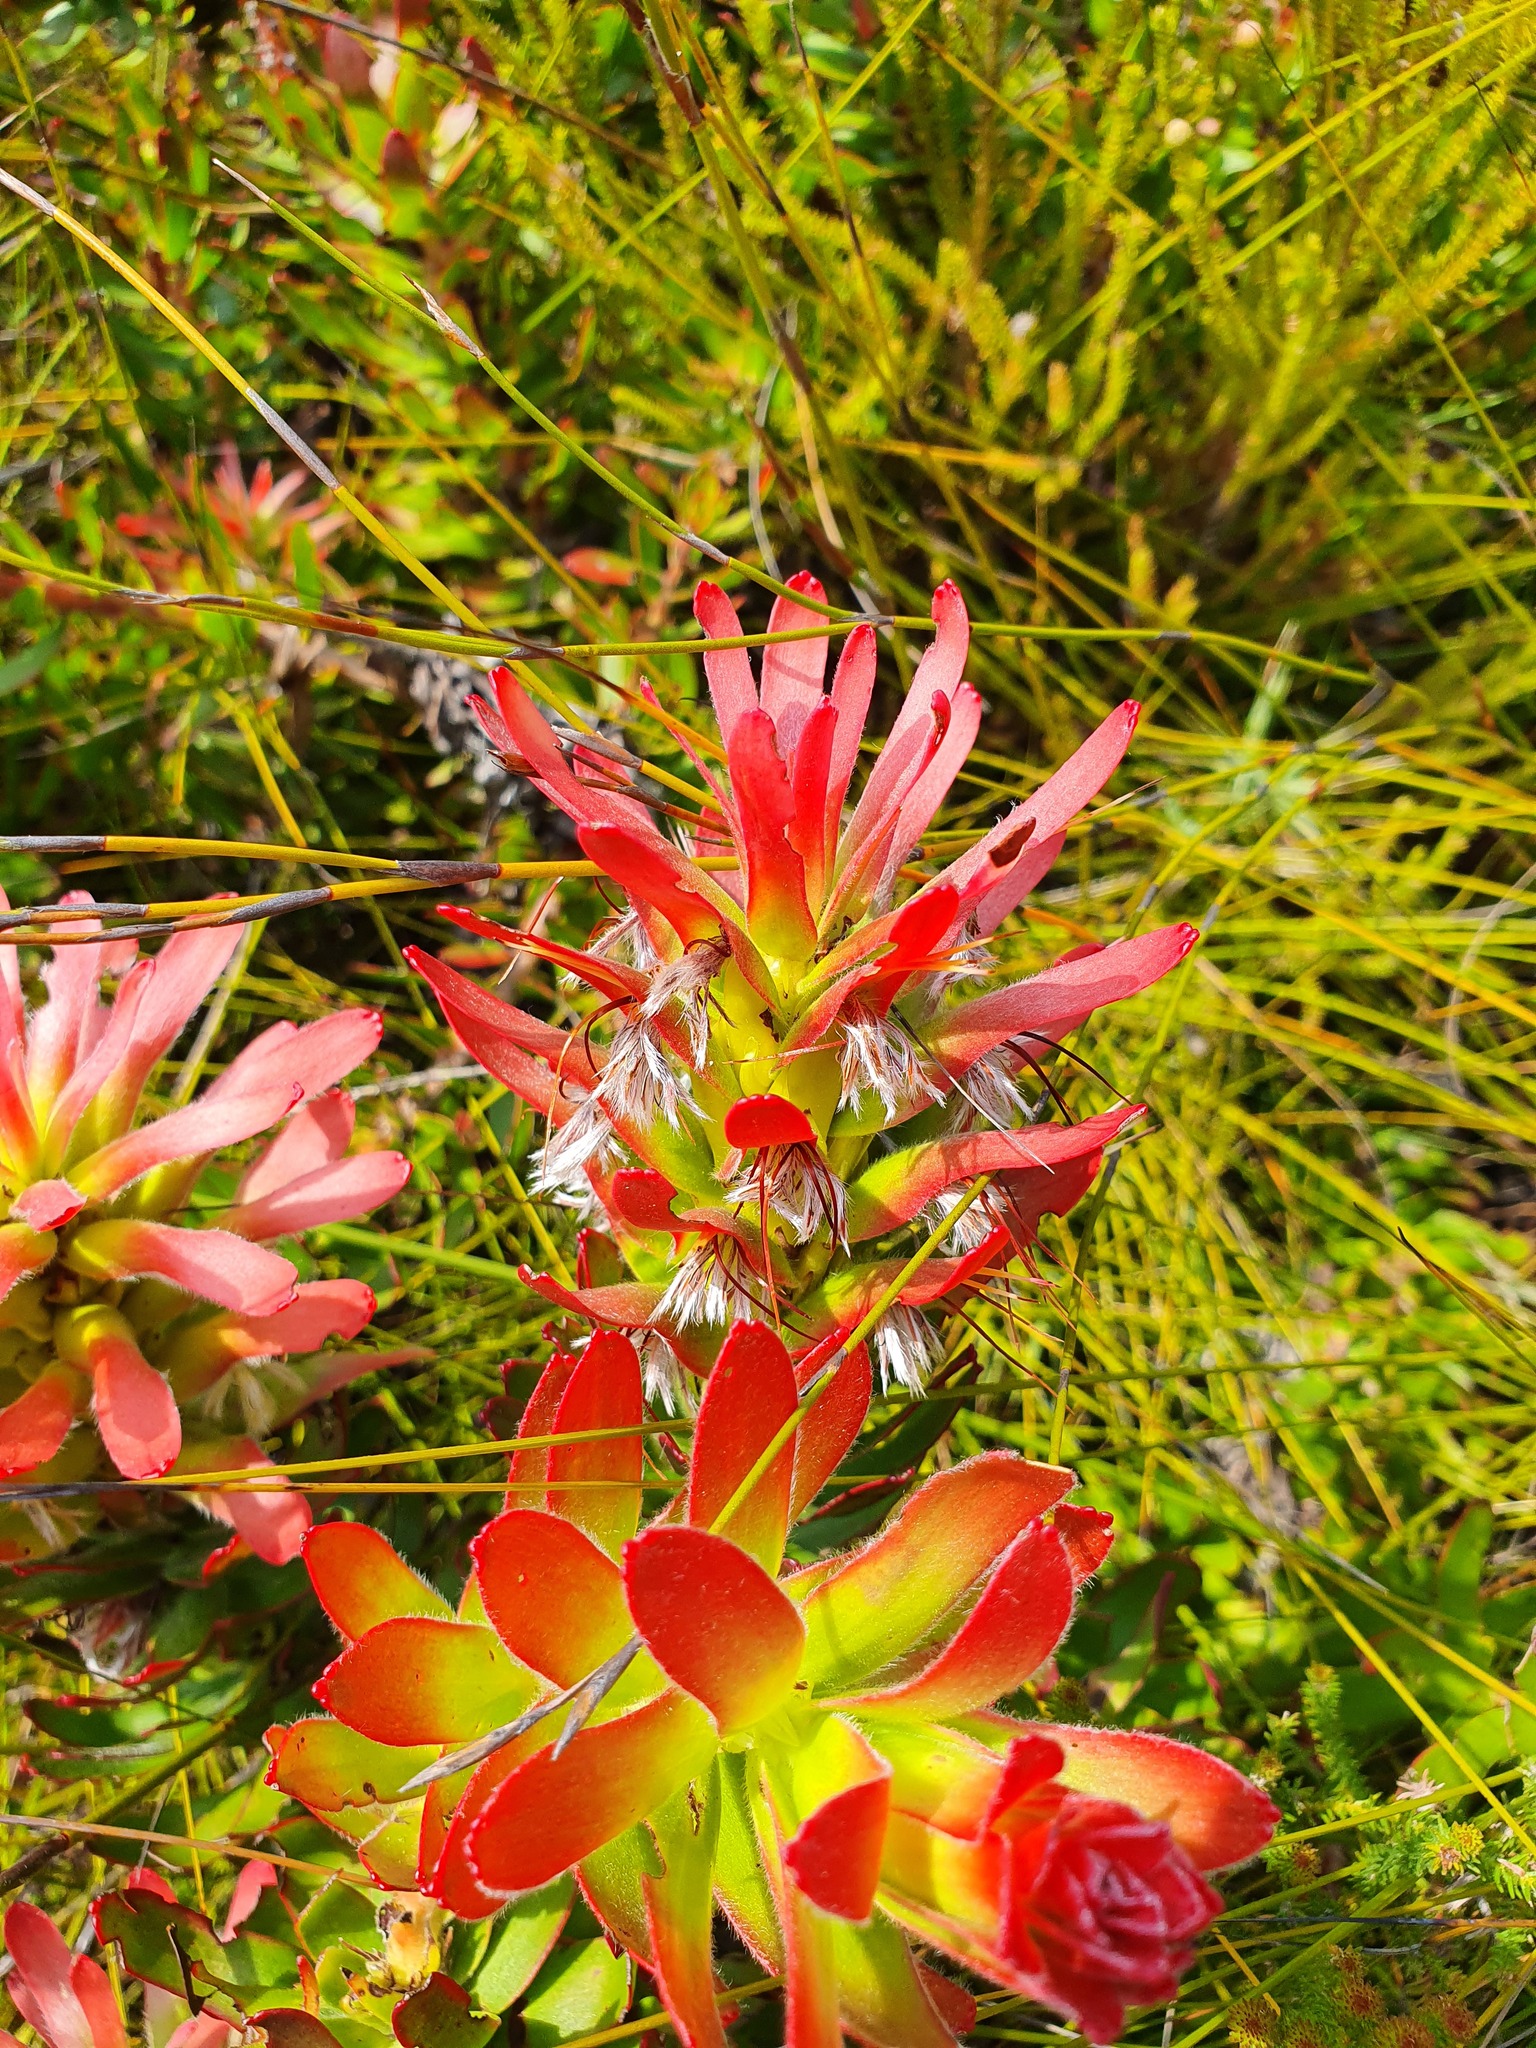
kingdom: Plantae
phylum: Tracheophyta
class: Magnoliopsida
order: Proteales
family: Proteaceae
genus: Mimetes
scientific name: Mimetes cucullatus
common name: Common pagoda
